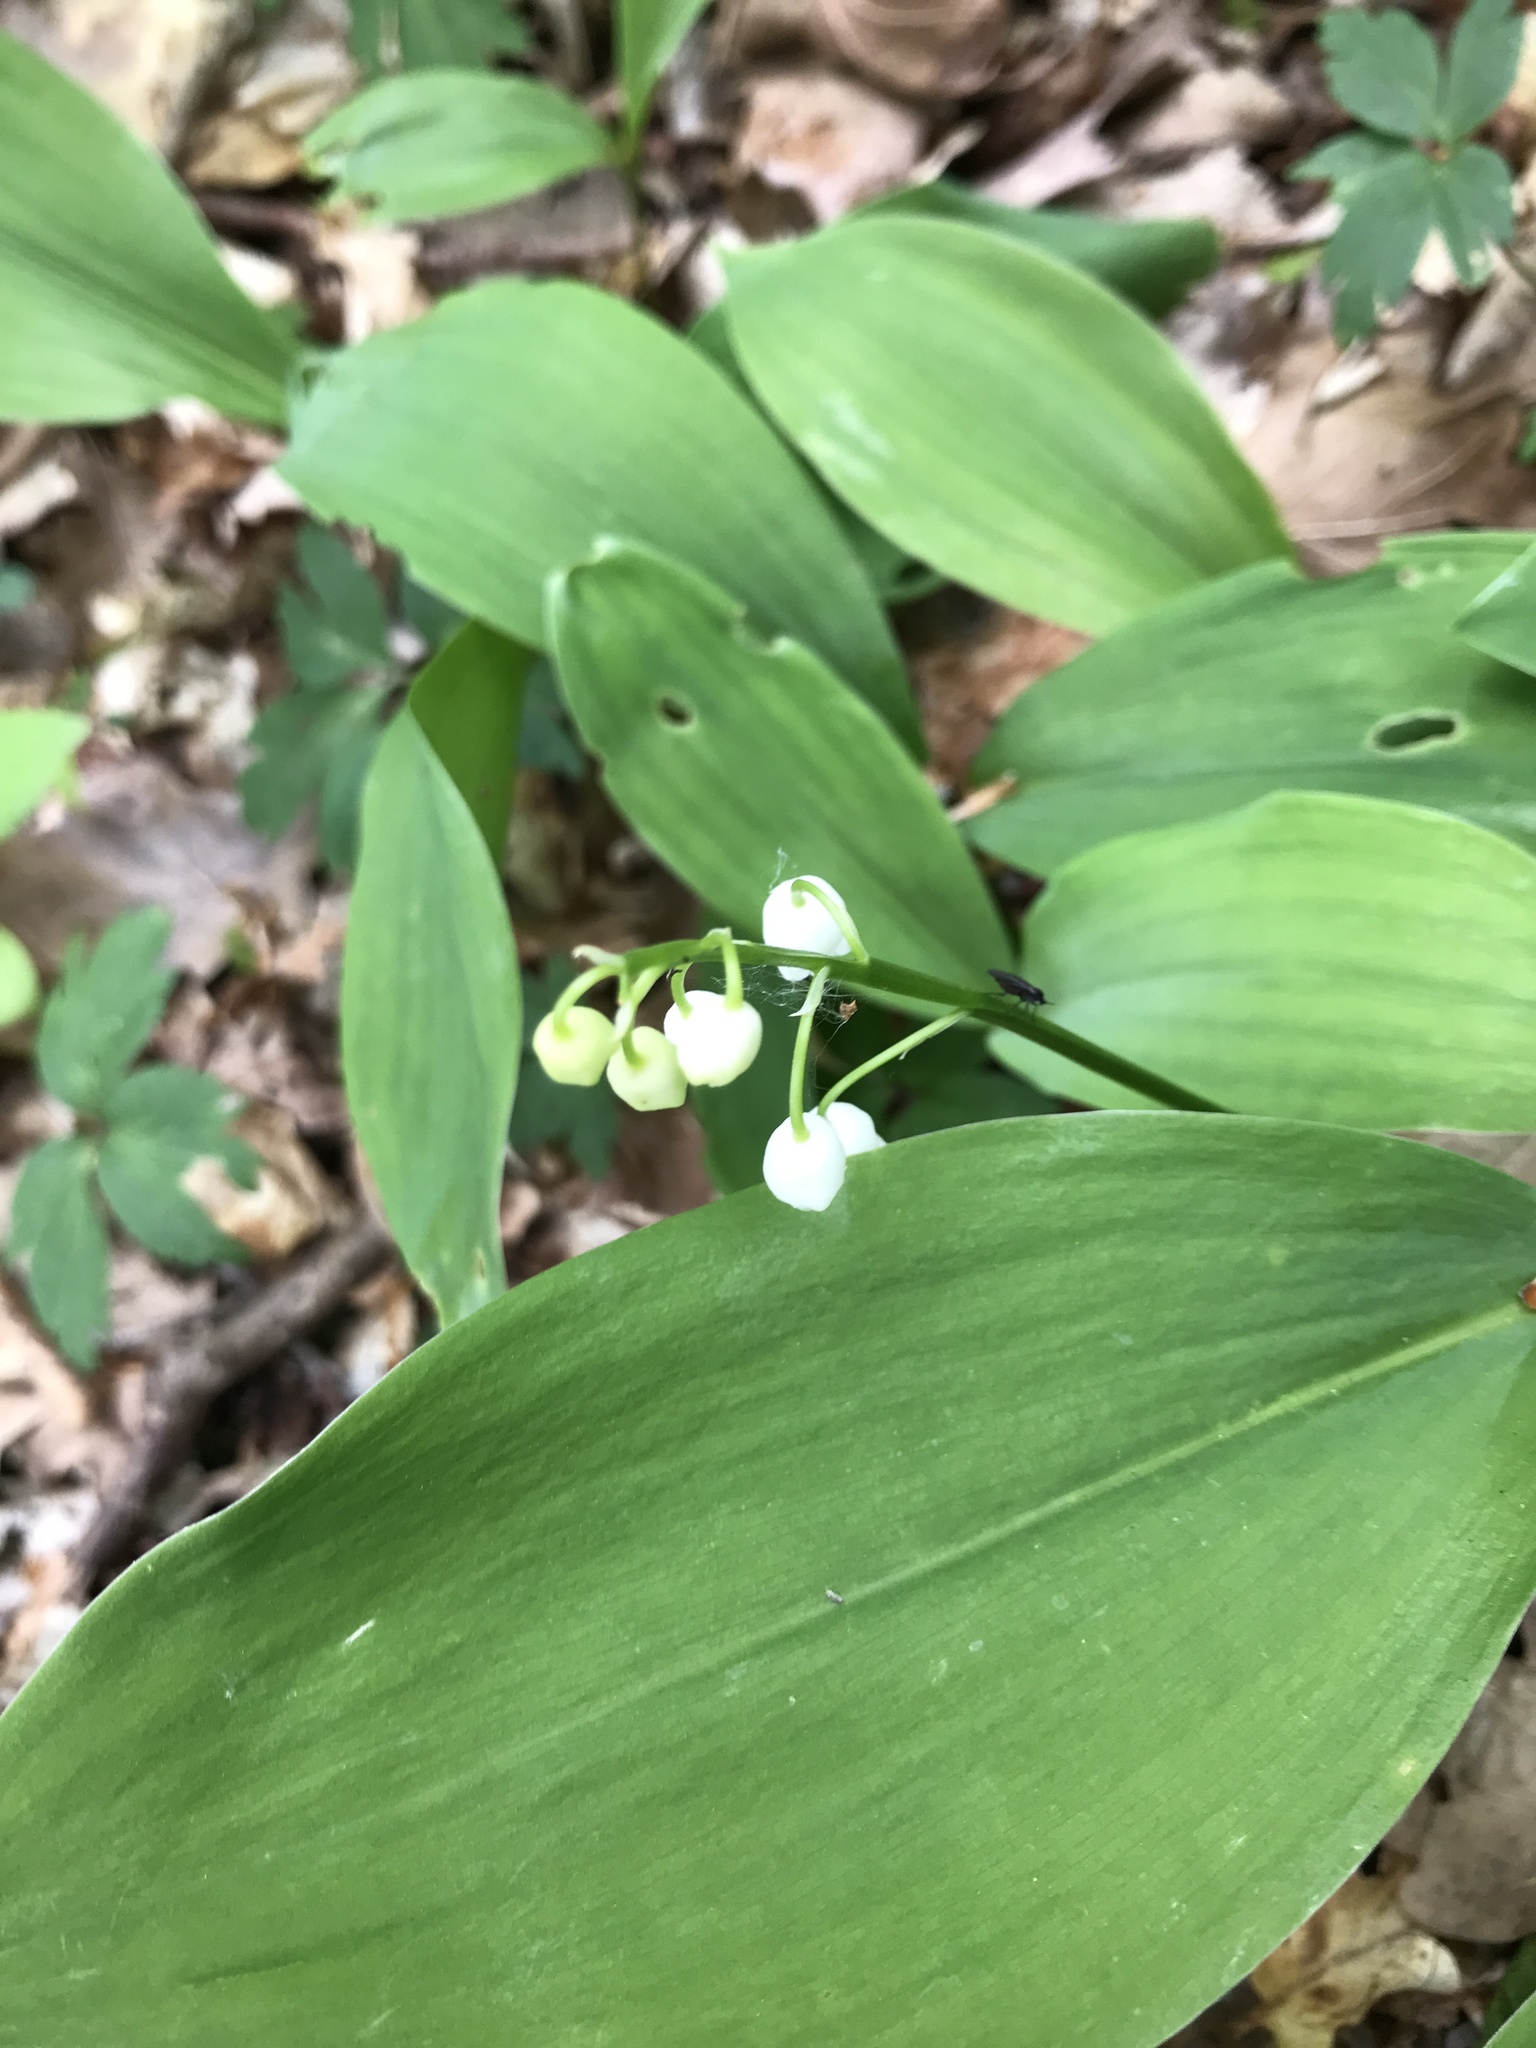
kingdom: Plantae
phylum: Tracheophyta
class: Liliopsida
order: Asparagales
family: Asparagaceae
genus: Convallaria
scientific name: Convallaria majalis
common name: Lily-of-the-valley
